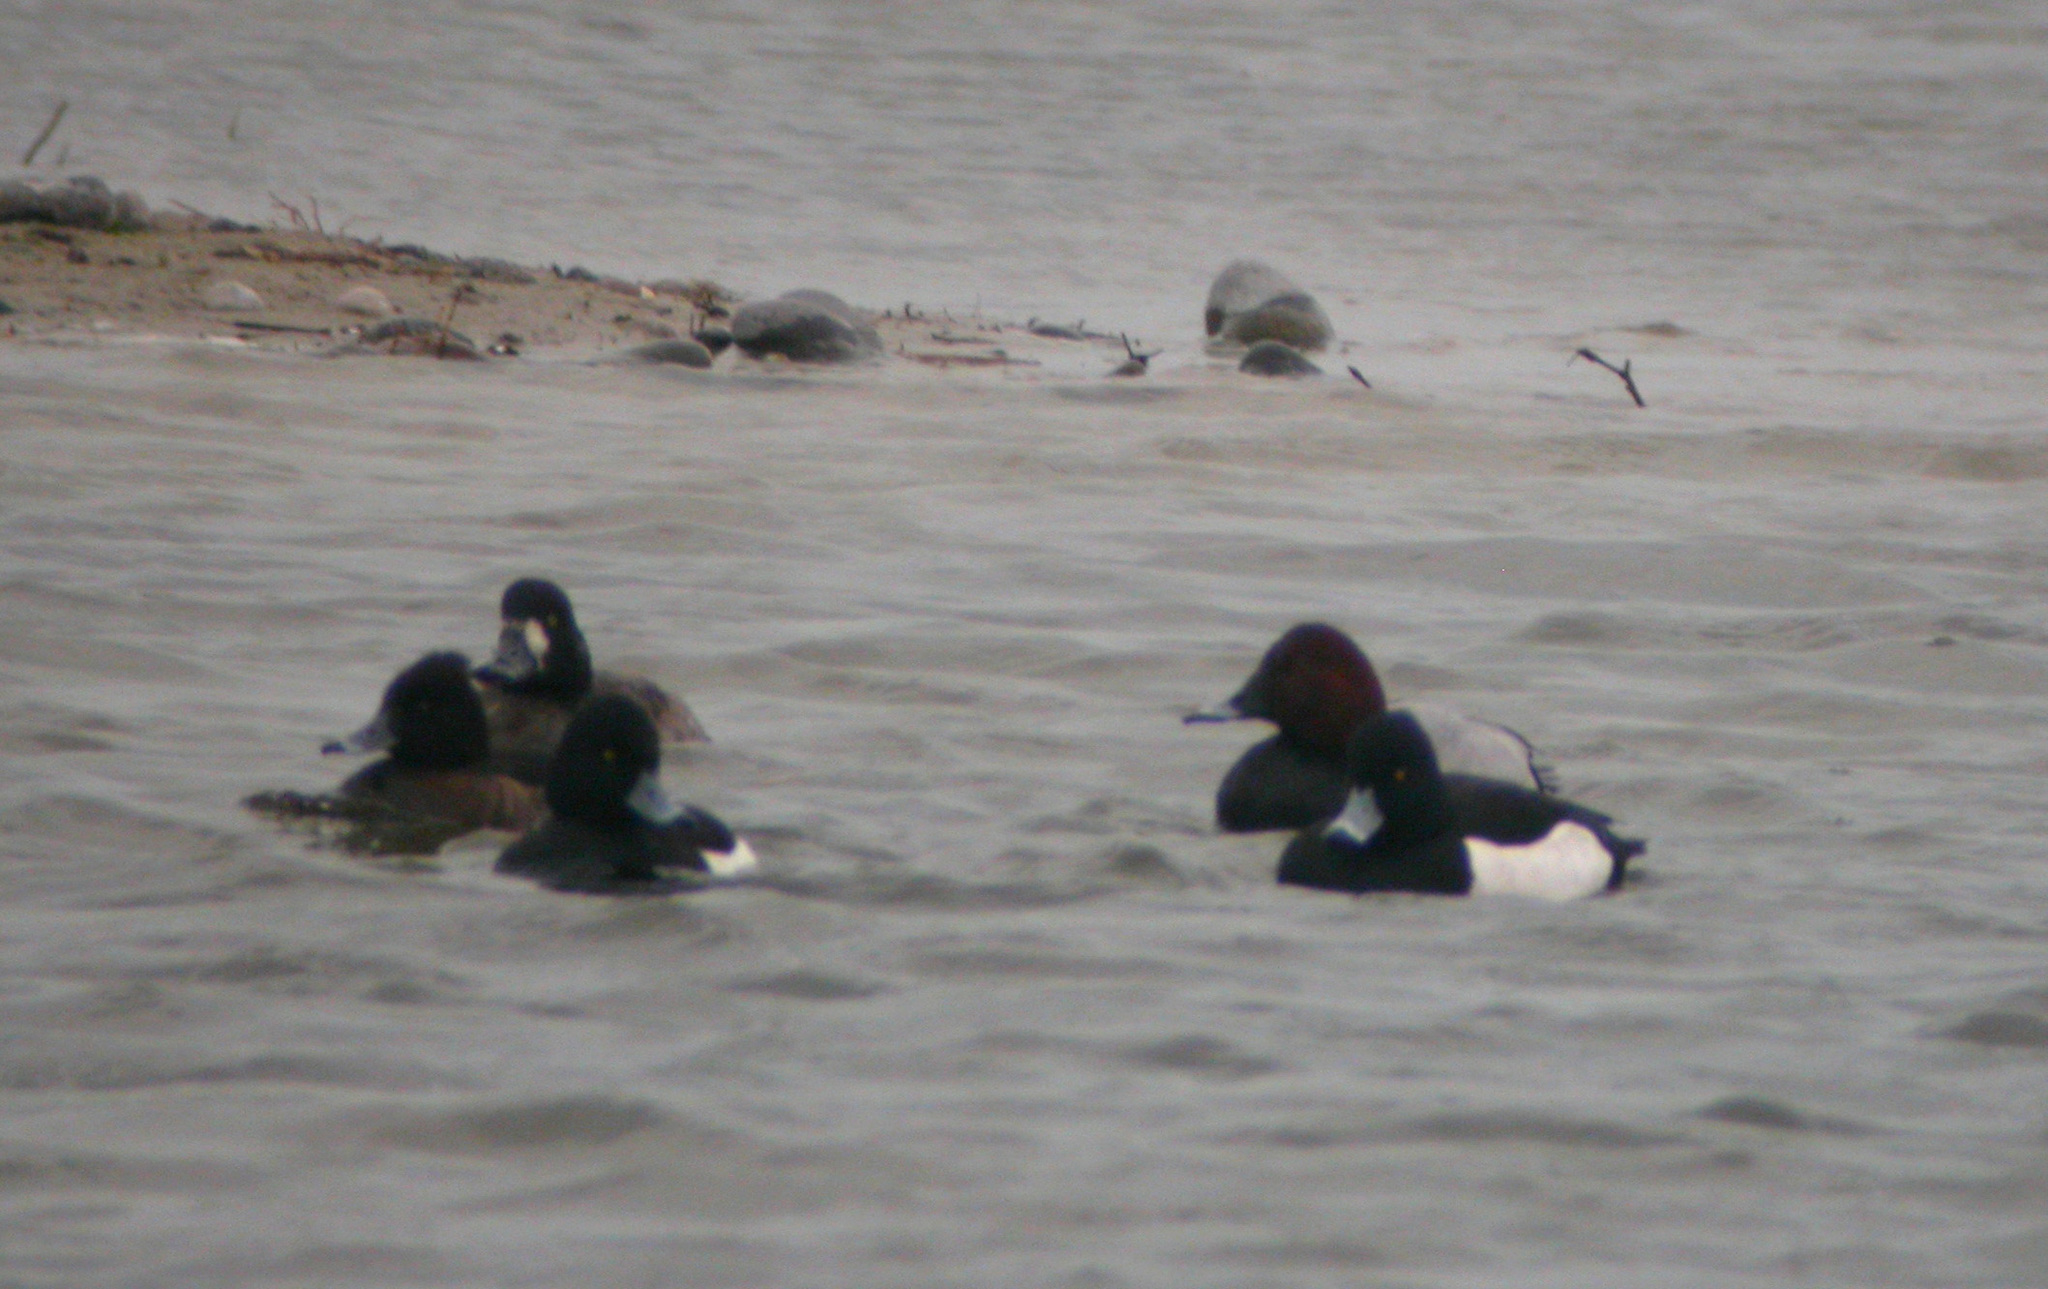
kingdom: Animalia
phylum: Chordata
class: Aves
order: Anseriformes
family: Anatidae
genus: Aythya
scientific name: Aythya fuligula
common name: Tufted duck
